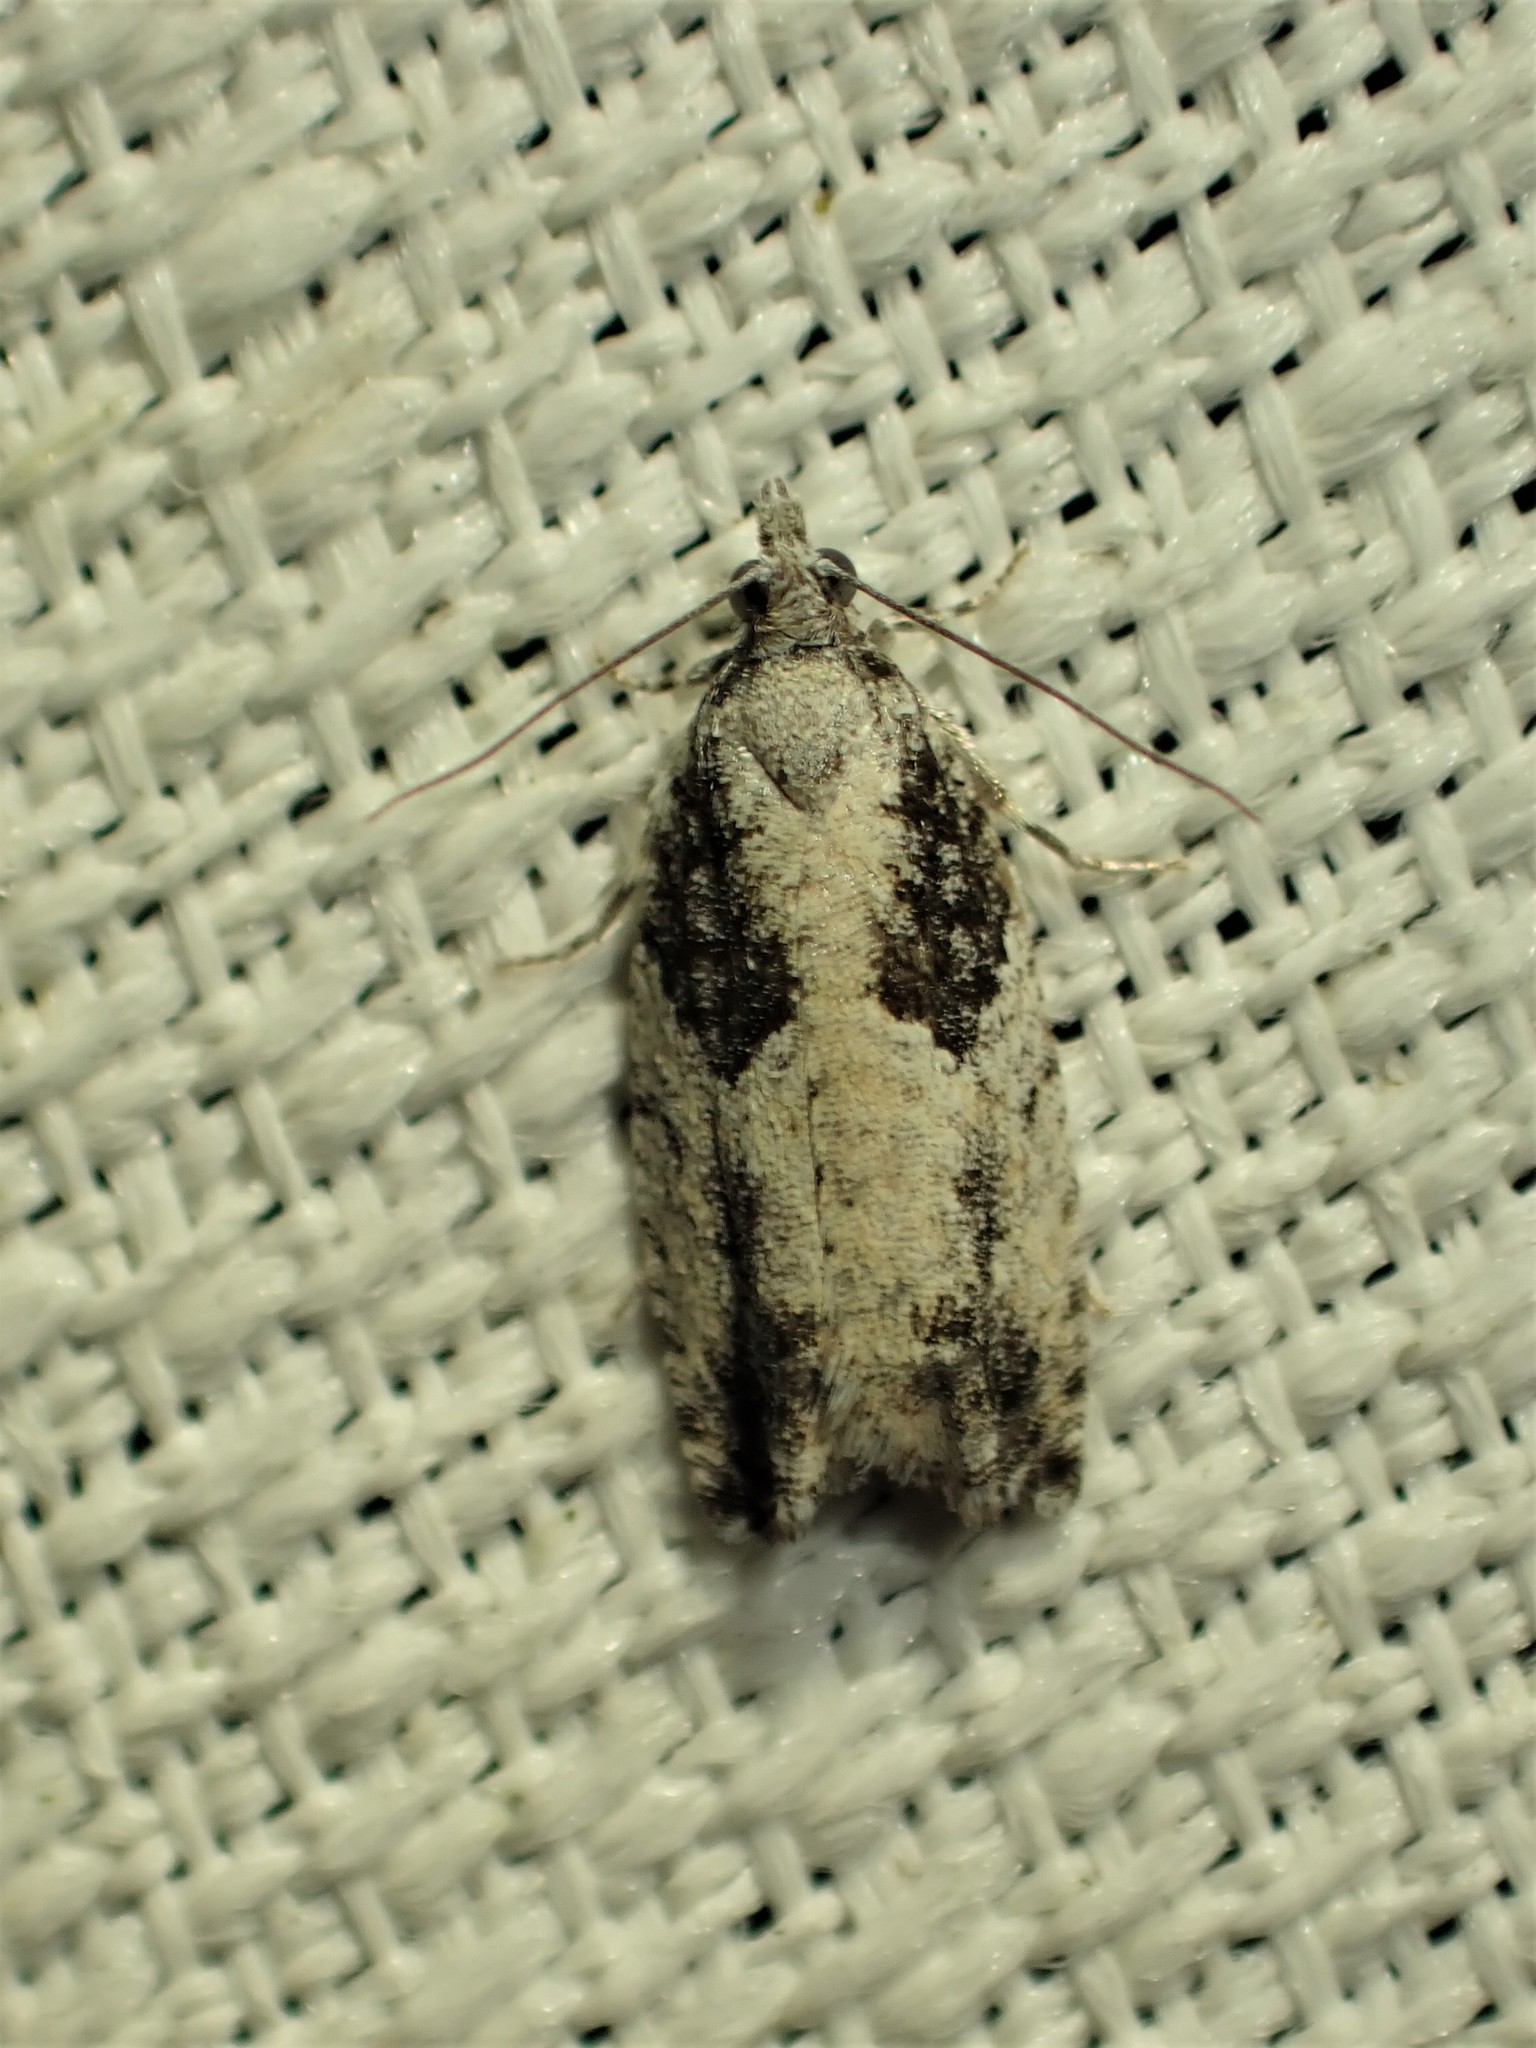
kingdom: Animalia
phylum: Arthropoda
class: Insecta
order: Lepidoptera
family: Tortricidae
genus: Epinotia
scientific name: Epinotia cinereana
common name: Grey aspen bell
